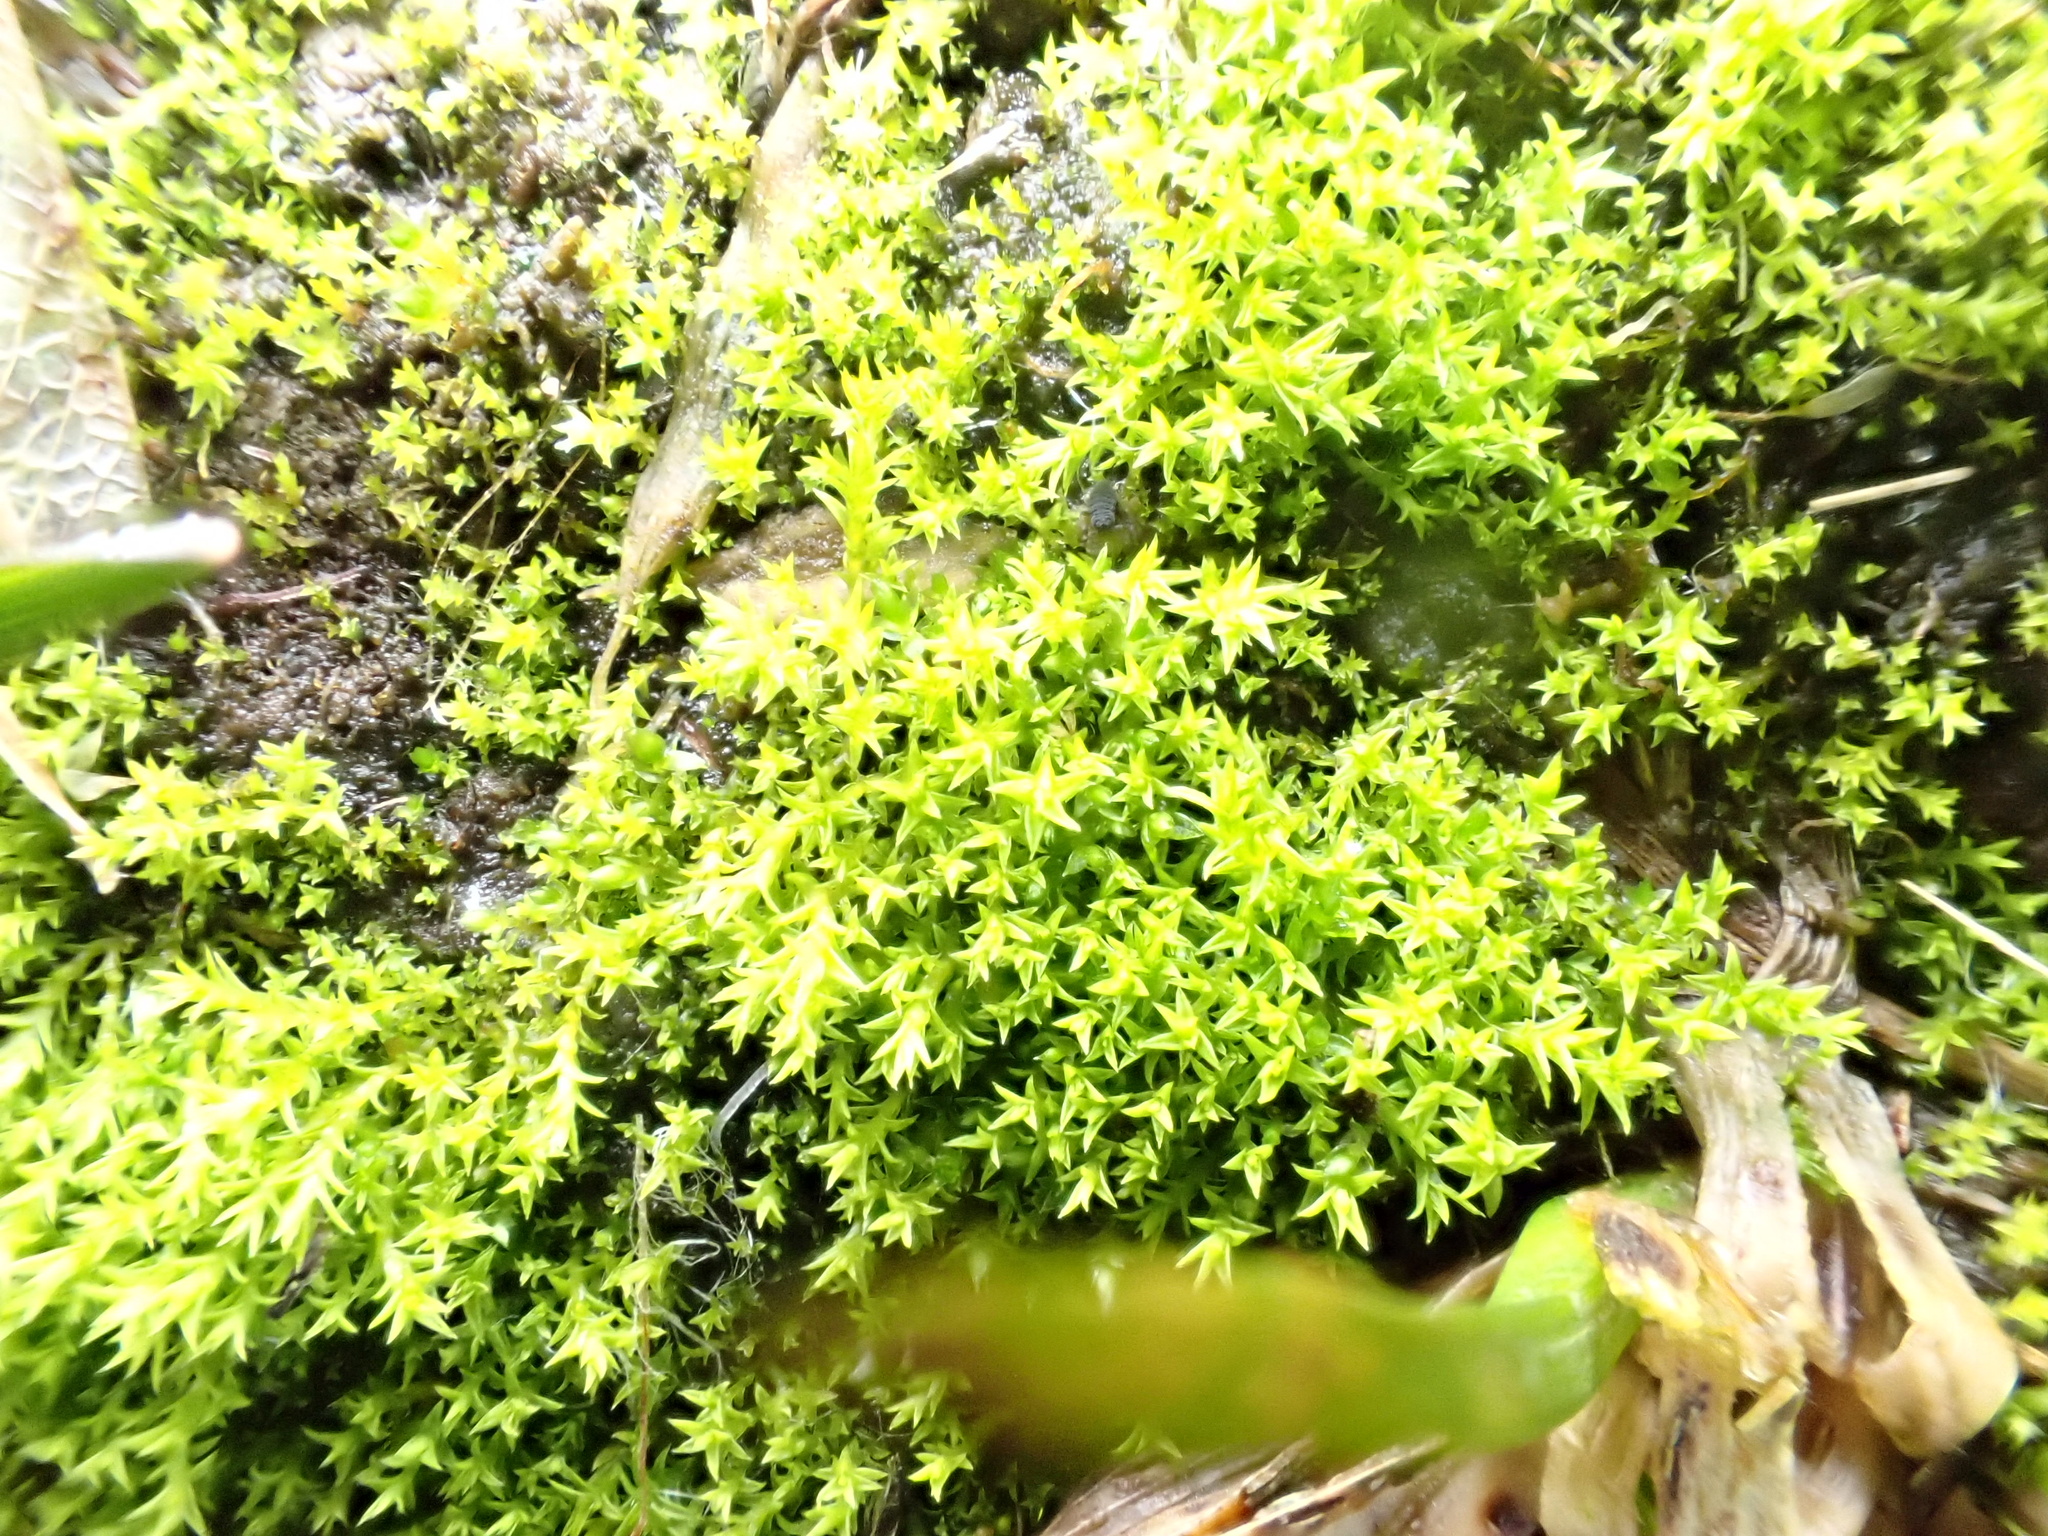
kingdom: Plantae
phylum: Bryophyta
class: Bryopsida
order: Pottiales
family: Pottiaceae
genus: Pseudocrossidium
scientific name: Pseudocrossidium hornschuchianum
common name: Hornschuch's beard-moss
